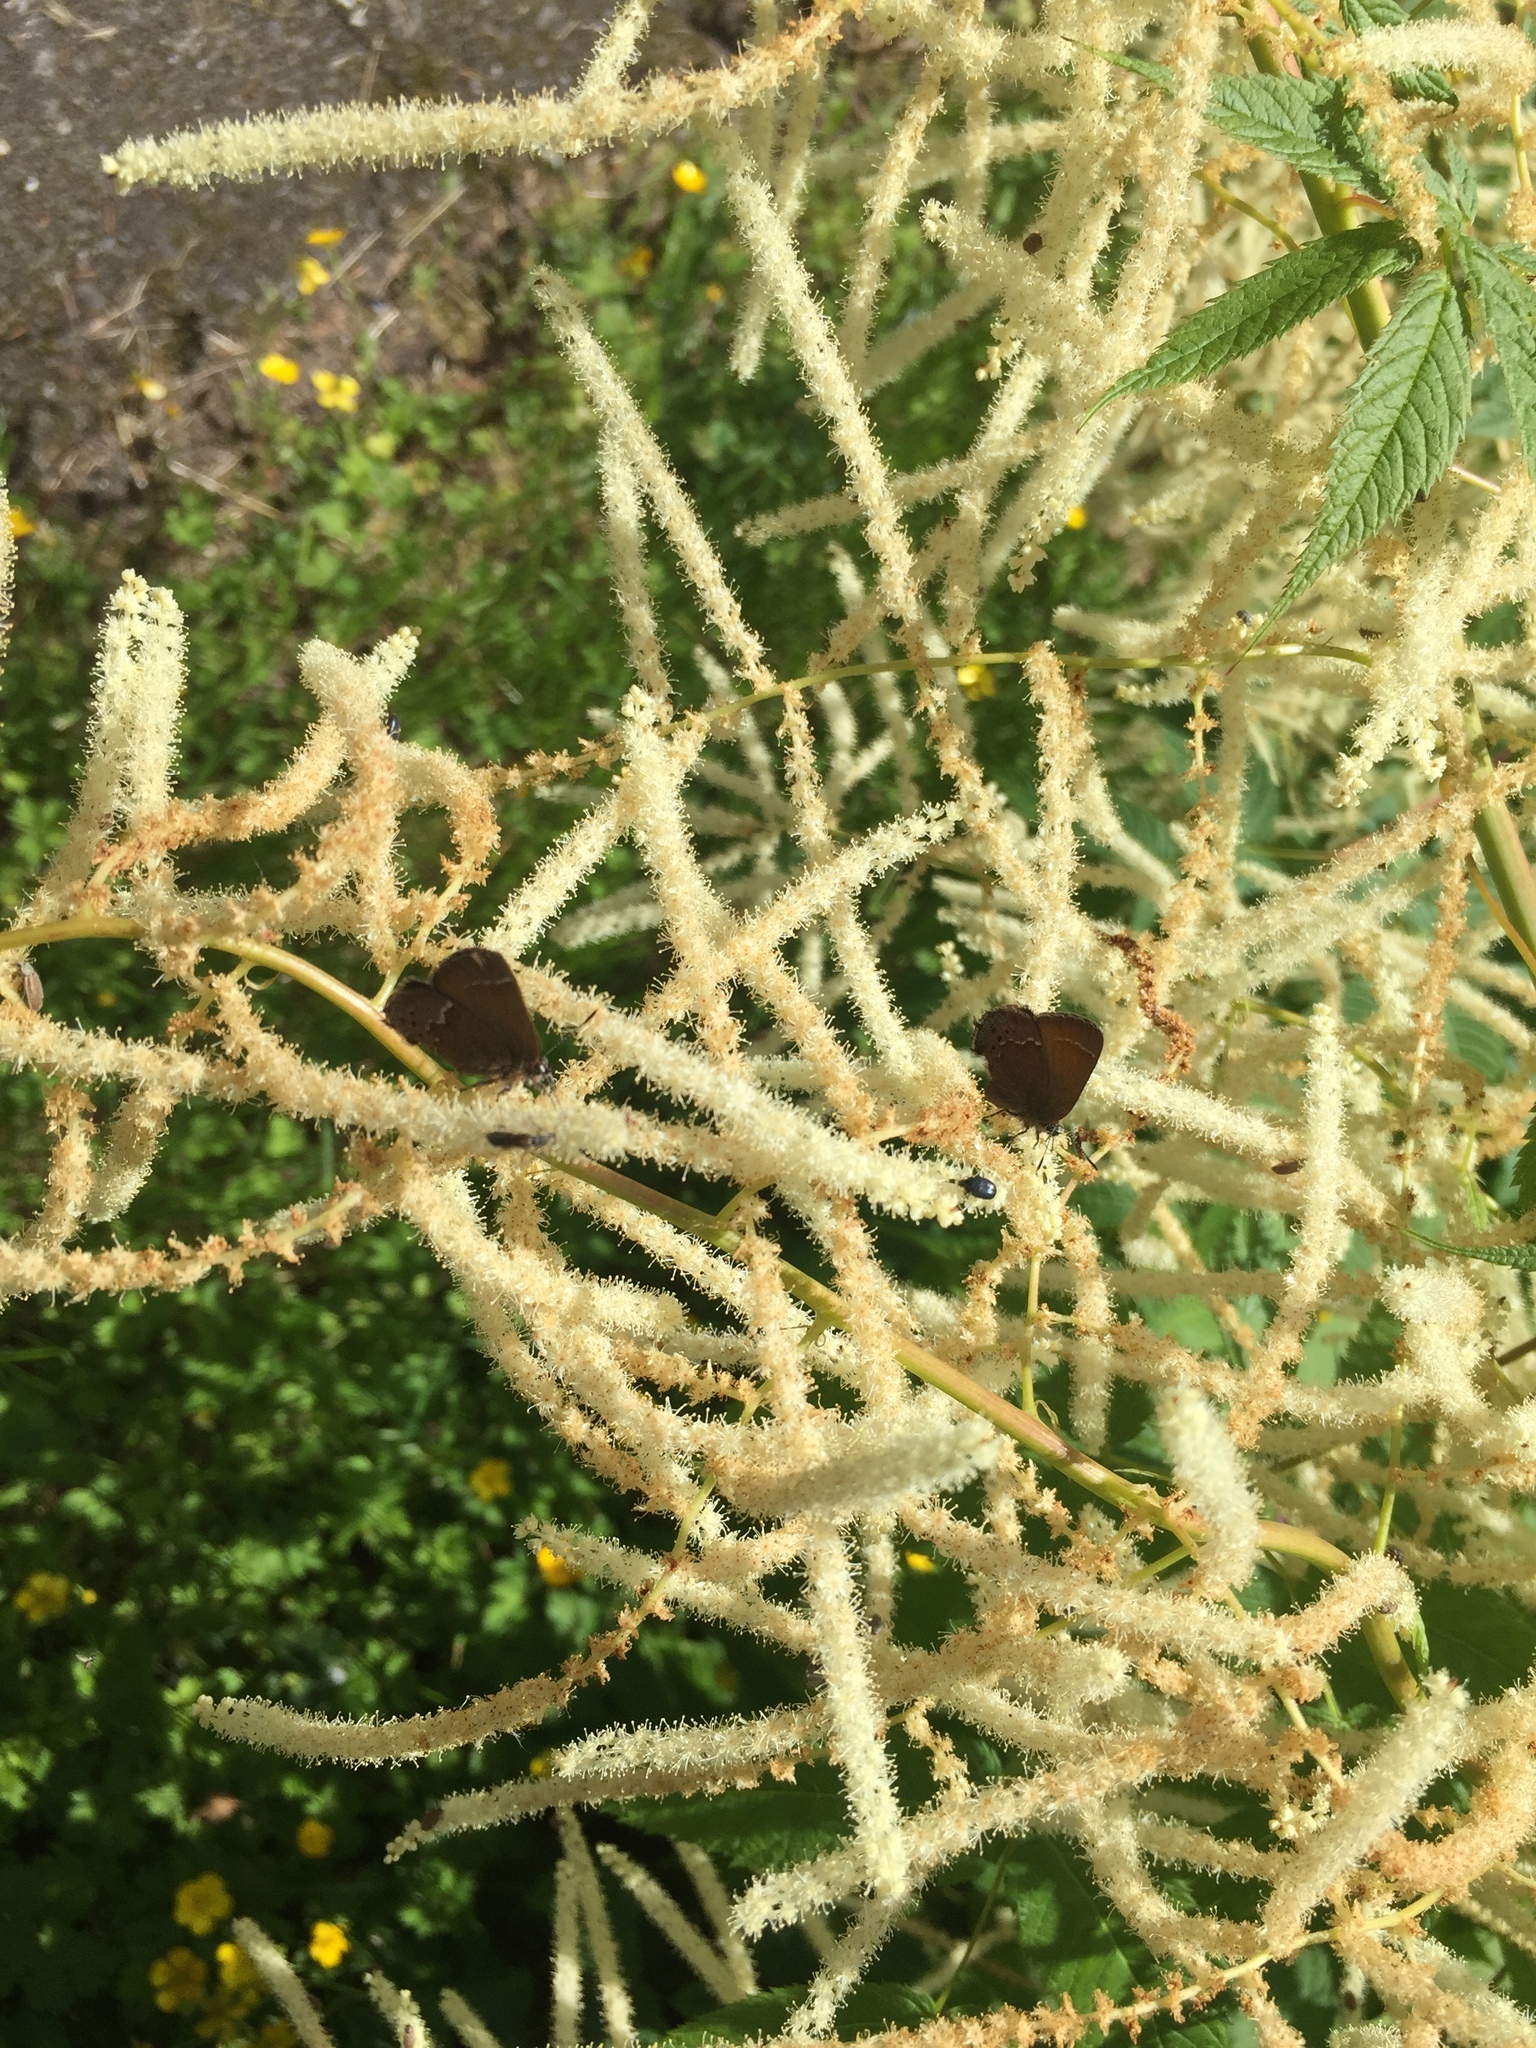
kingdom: Animalia
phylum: Arthropoda
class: Insecta
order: Lepidoptera
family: Lycaenidae
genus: Mitoura
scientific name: Mitoura gryneus
